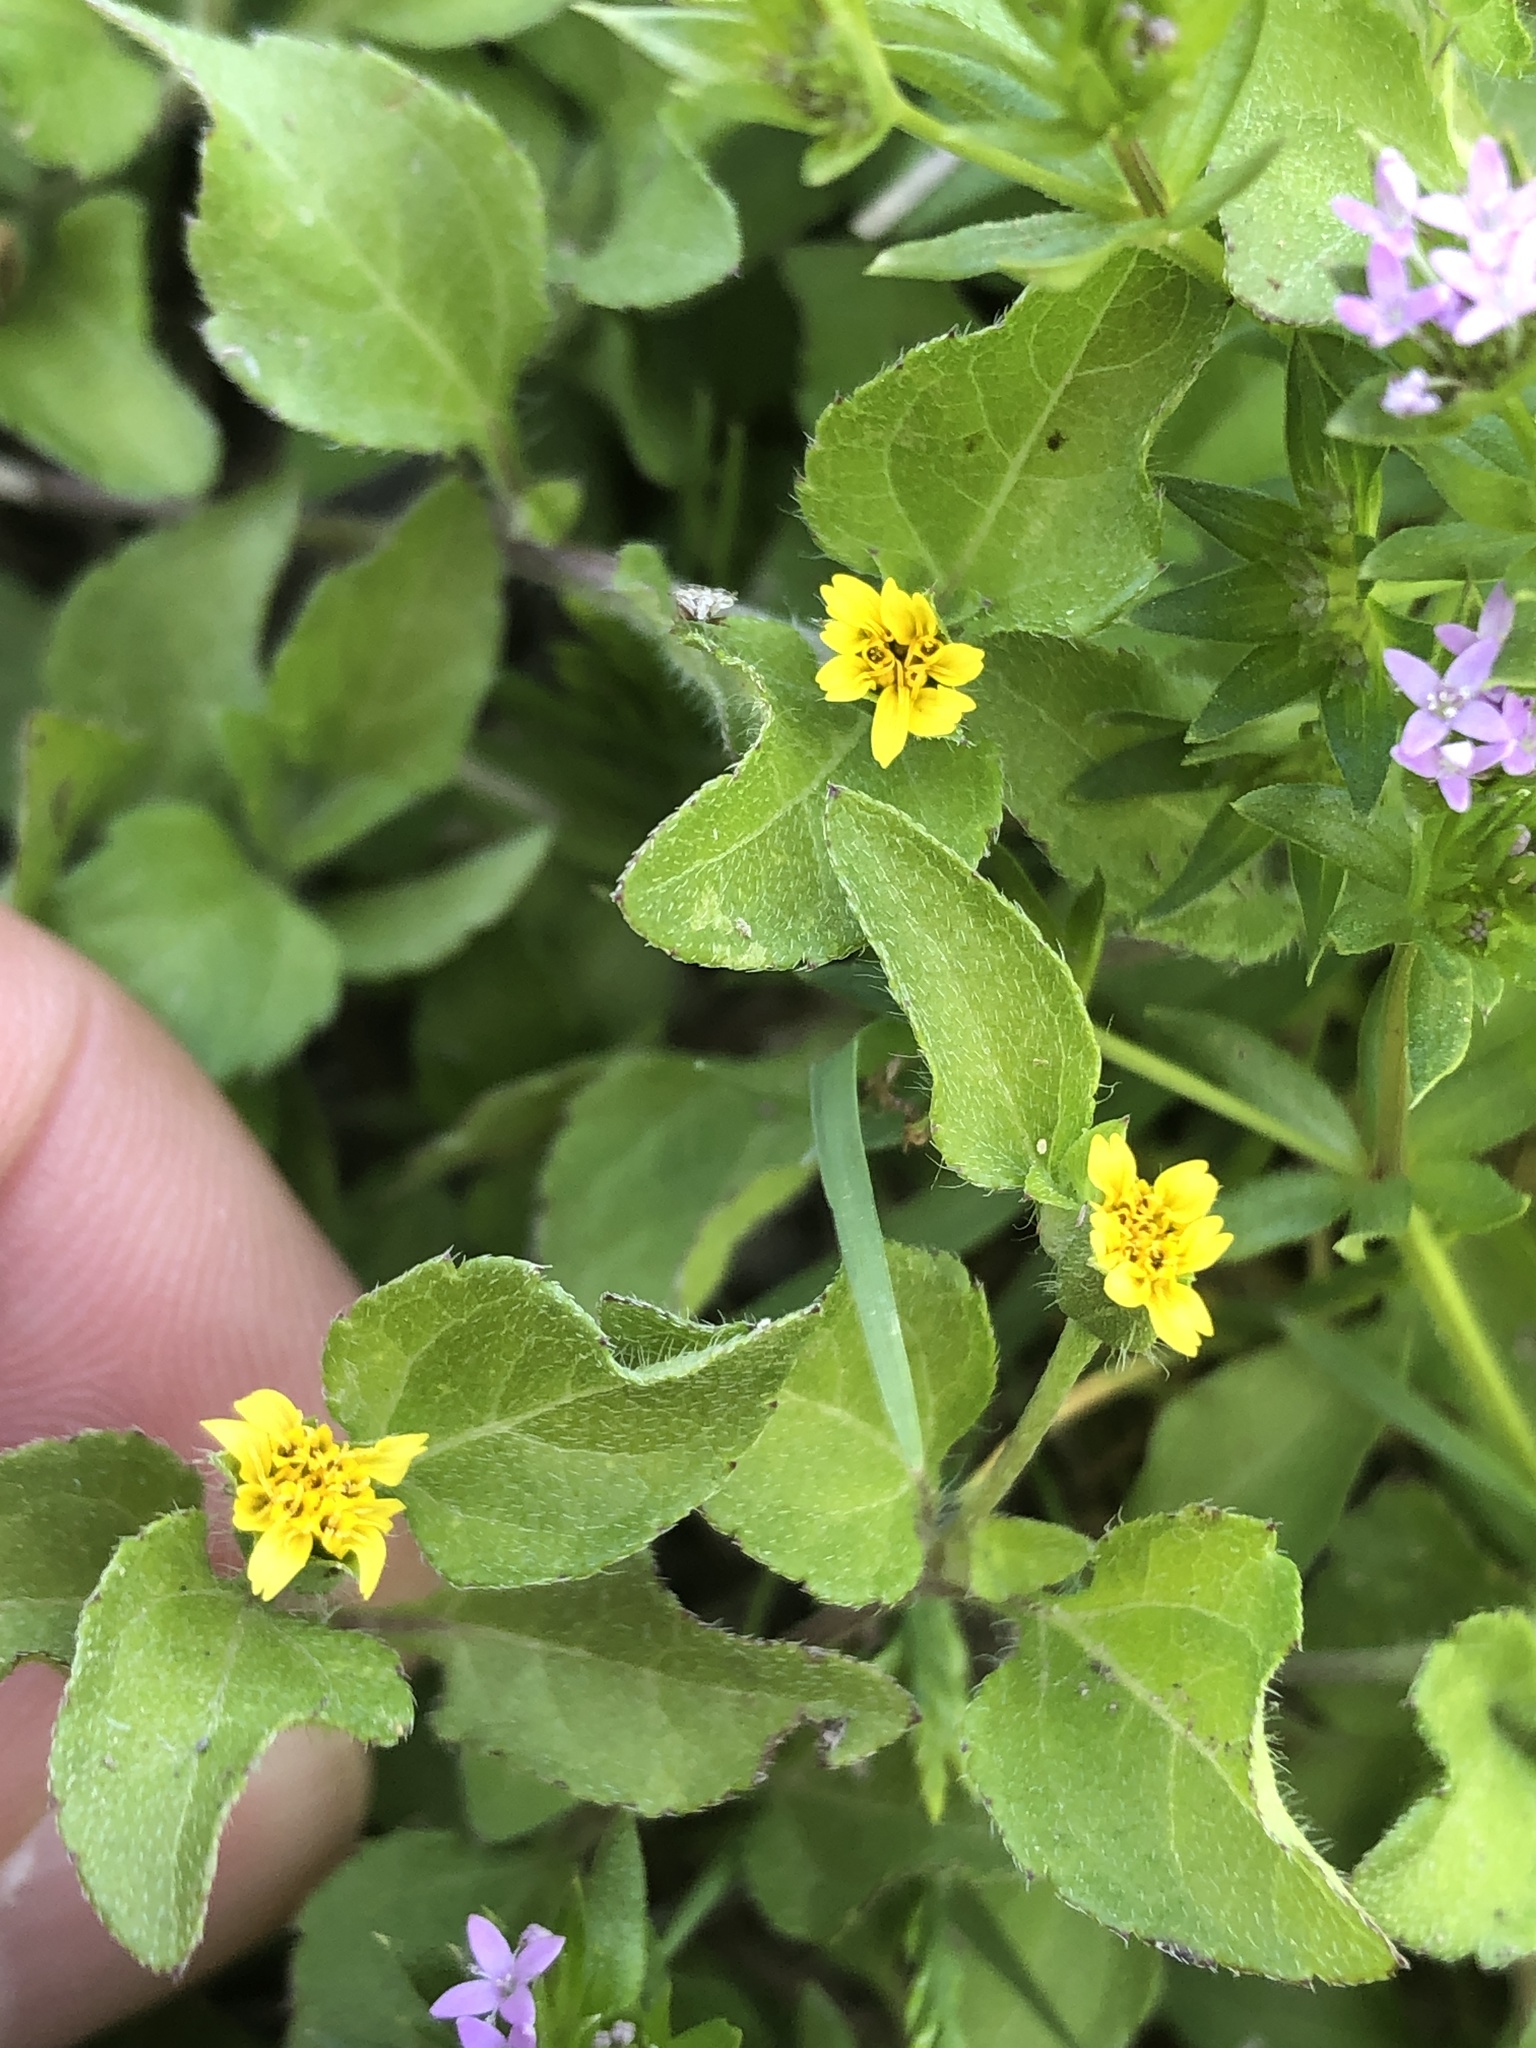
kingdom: Plantae
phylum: Tracheophyta
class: Magnoliopsida
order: Asterales
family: Asteraceae
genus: Calyptocarpus
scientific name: Calyptocarpus vialis
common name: Straggler daisy
